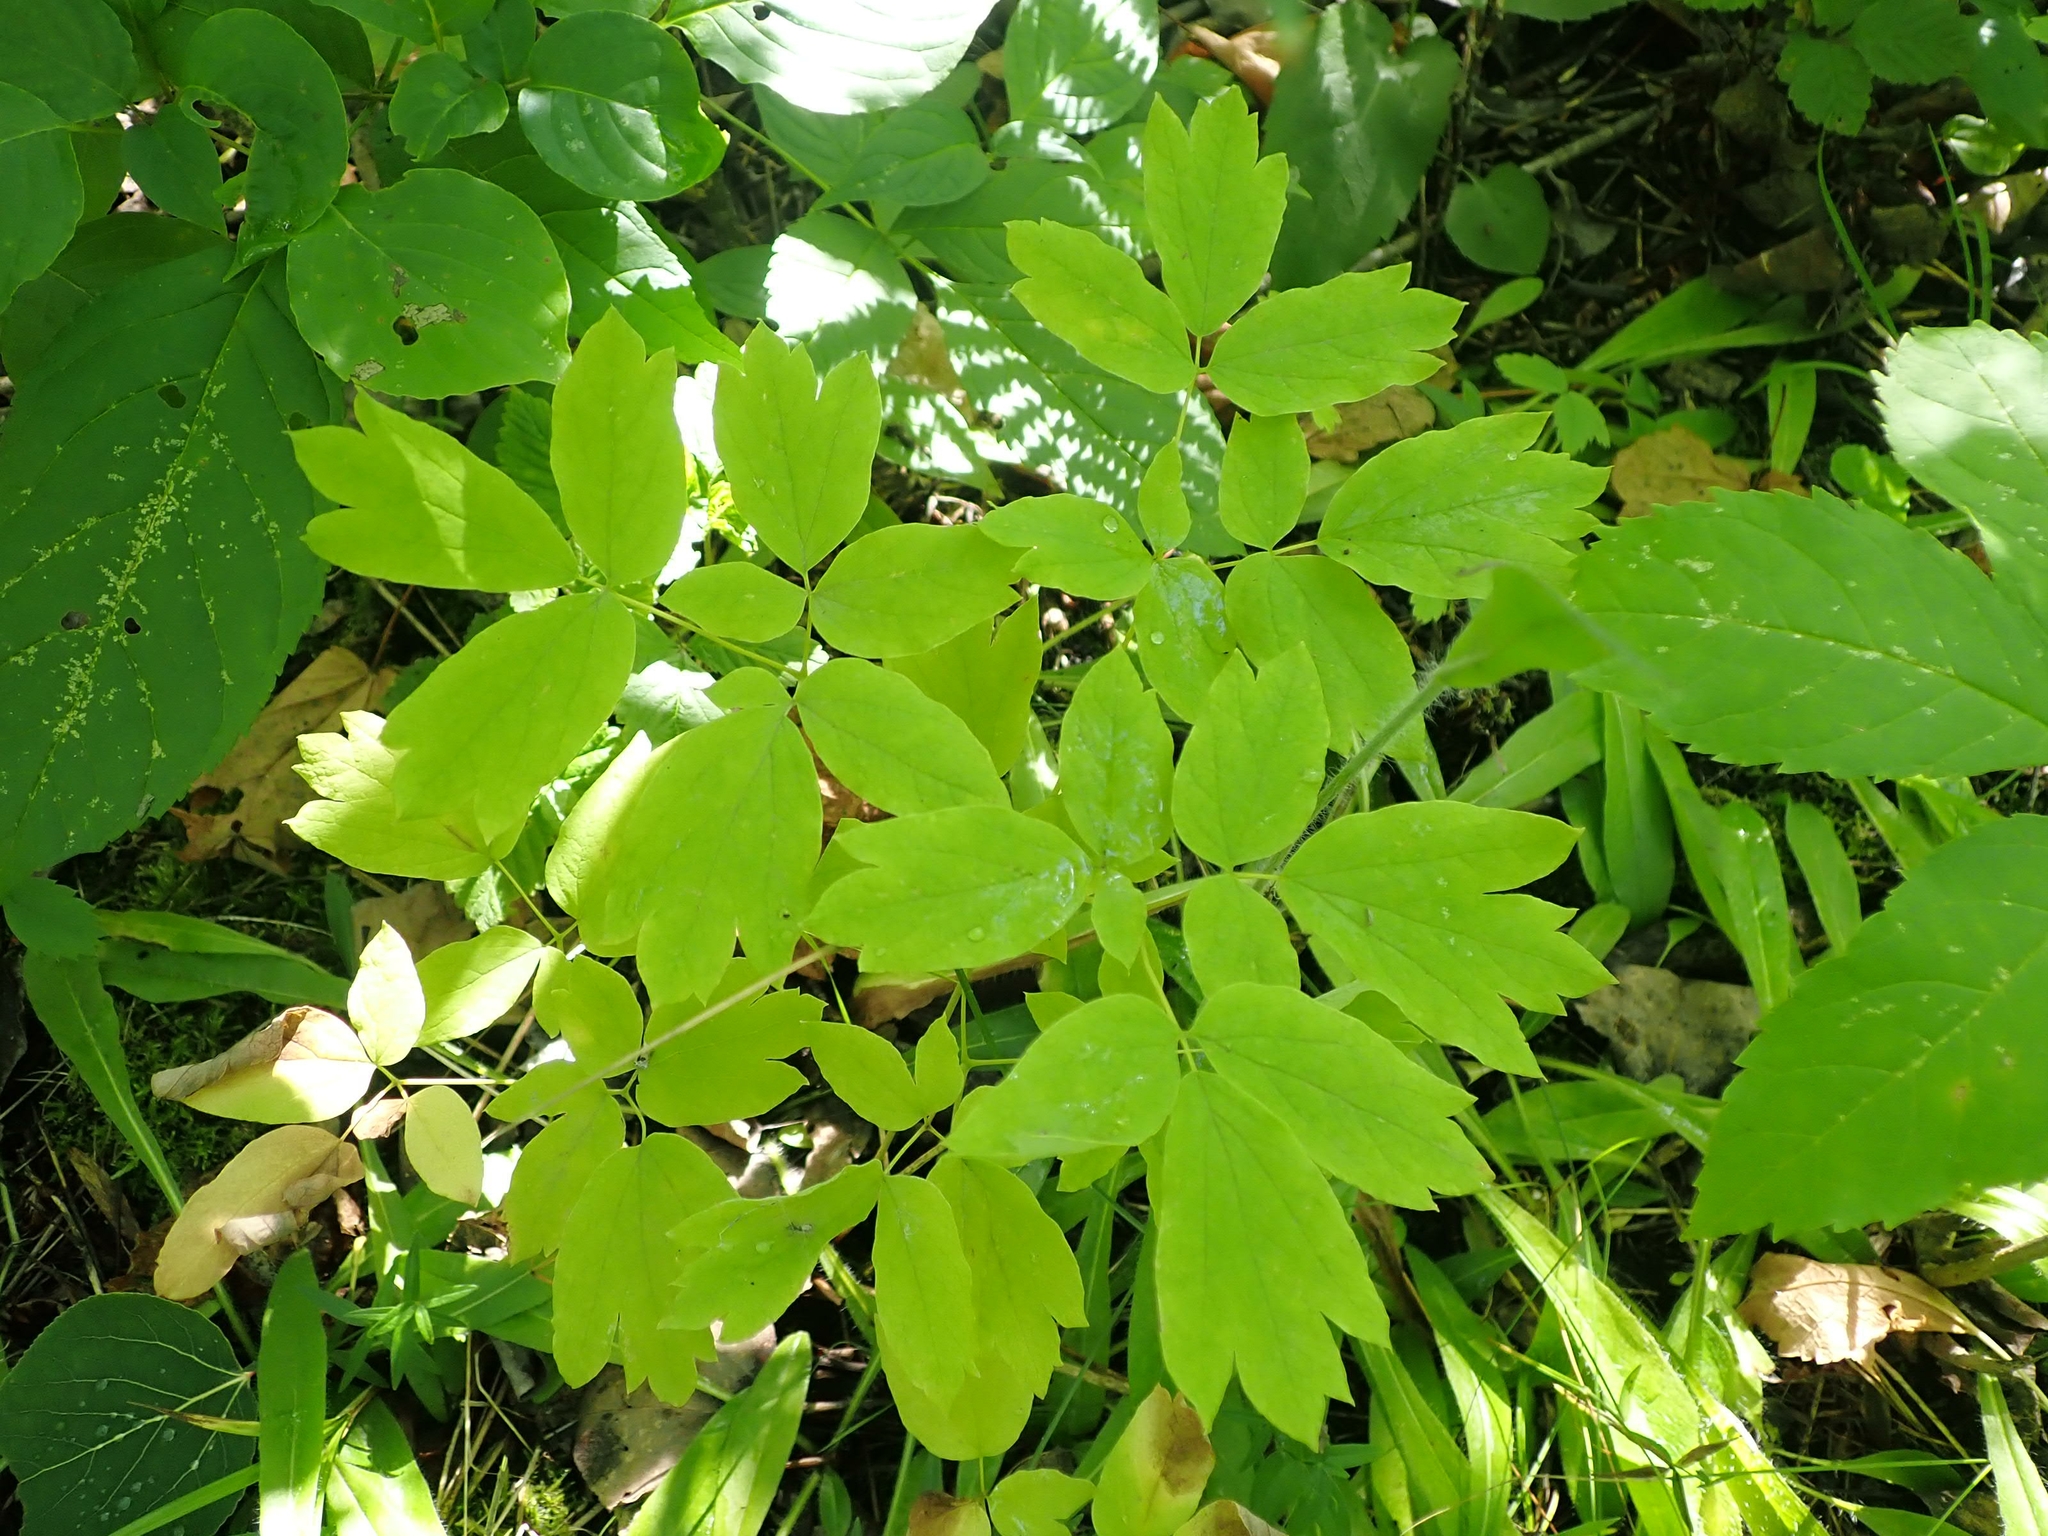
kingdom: Plantae
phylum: Tracheophyta
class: Magnoliopsida
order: Ranunculales
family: Berberidaceae
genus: Caulophyllum
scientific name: Caulophyllum thalictroides
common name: Blue cohosh
